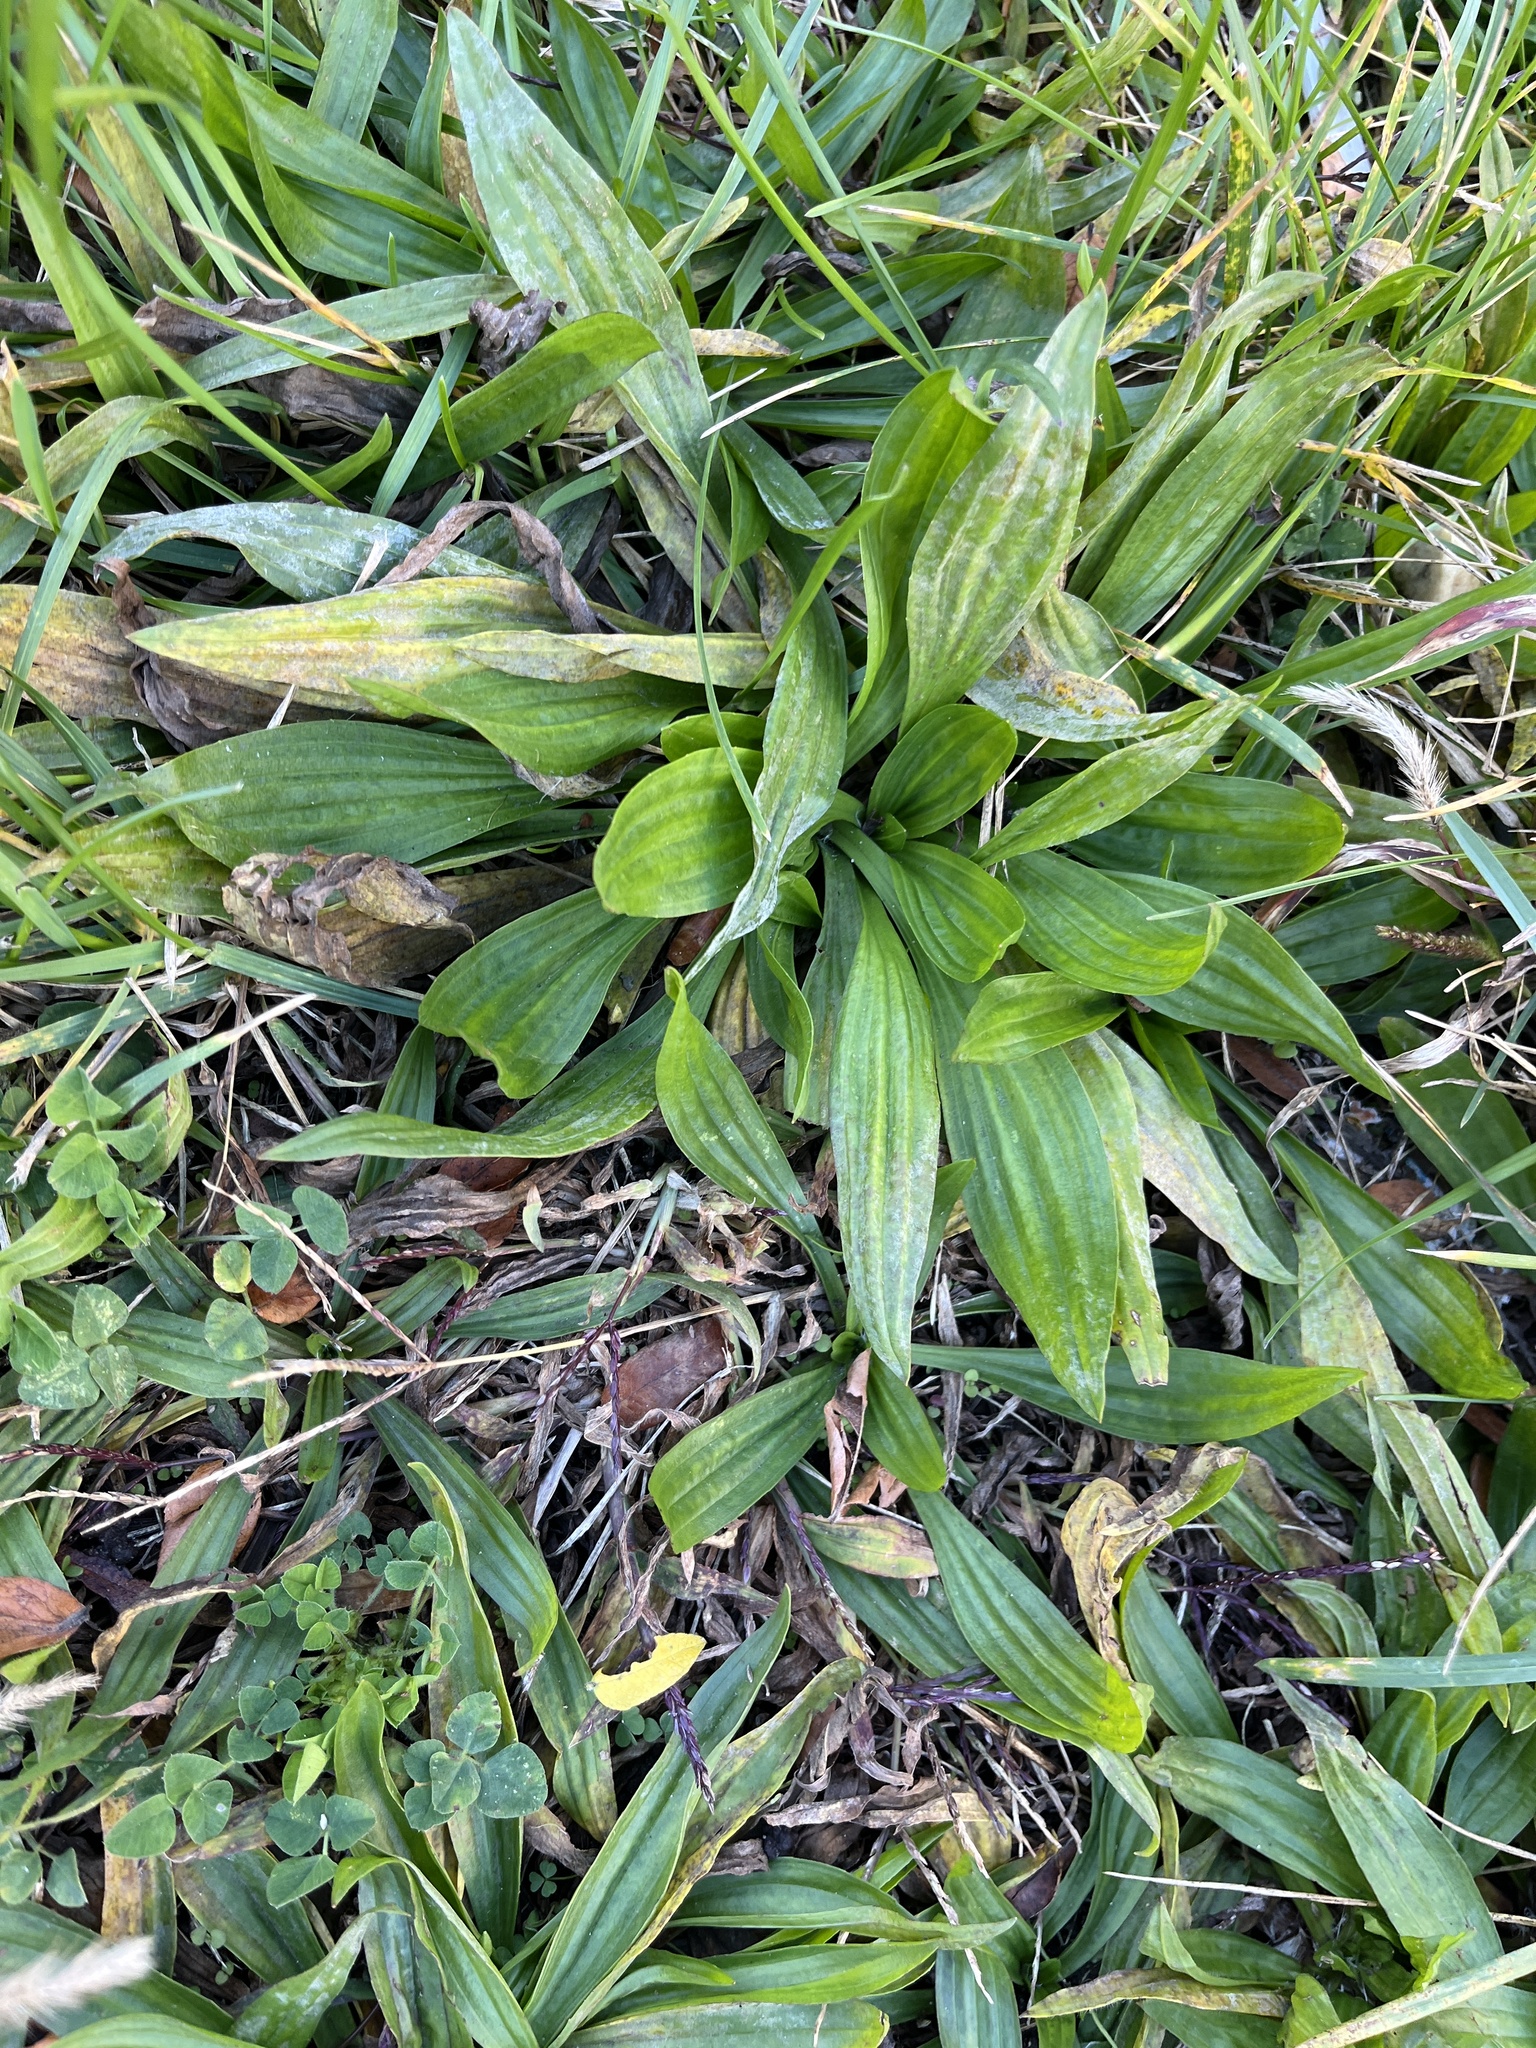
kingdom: Plantae
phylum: Tracheophyta
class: Magnoliopsida
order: Lamiales
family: Plantaginaceae
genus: Plantago
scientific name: Plantago lanceolata
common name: Ribwort plantain
